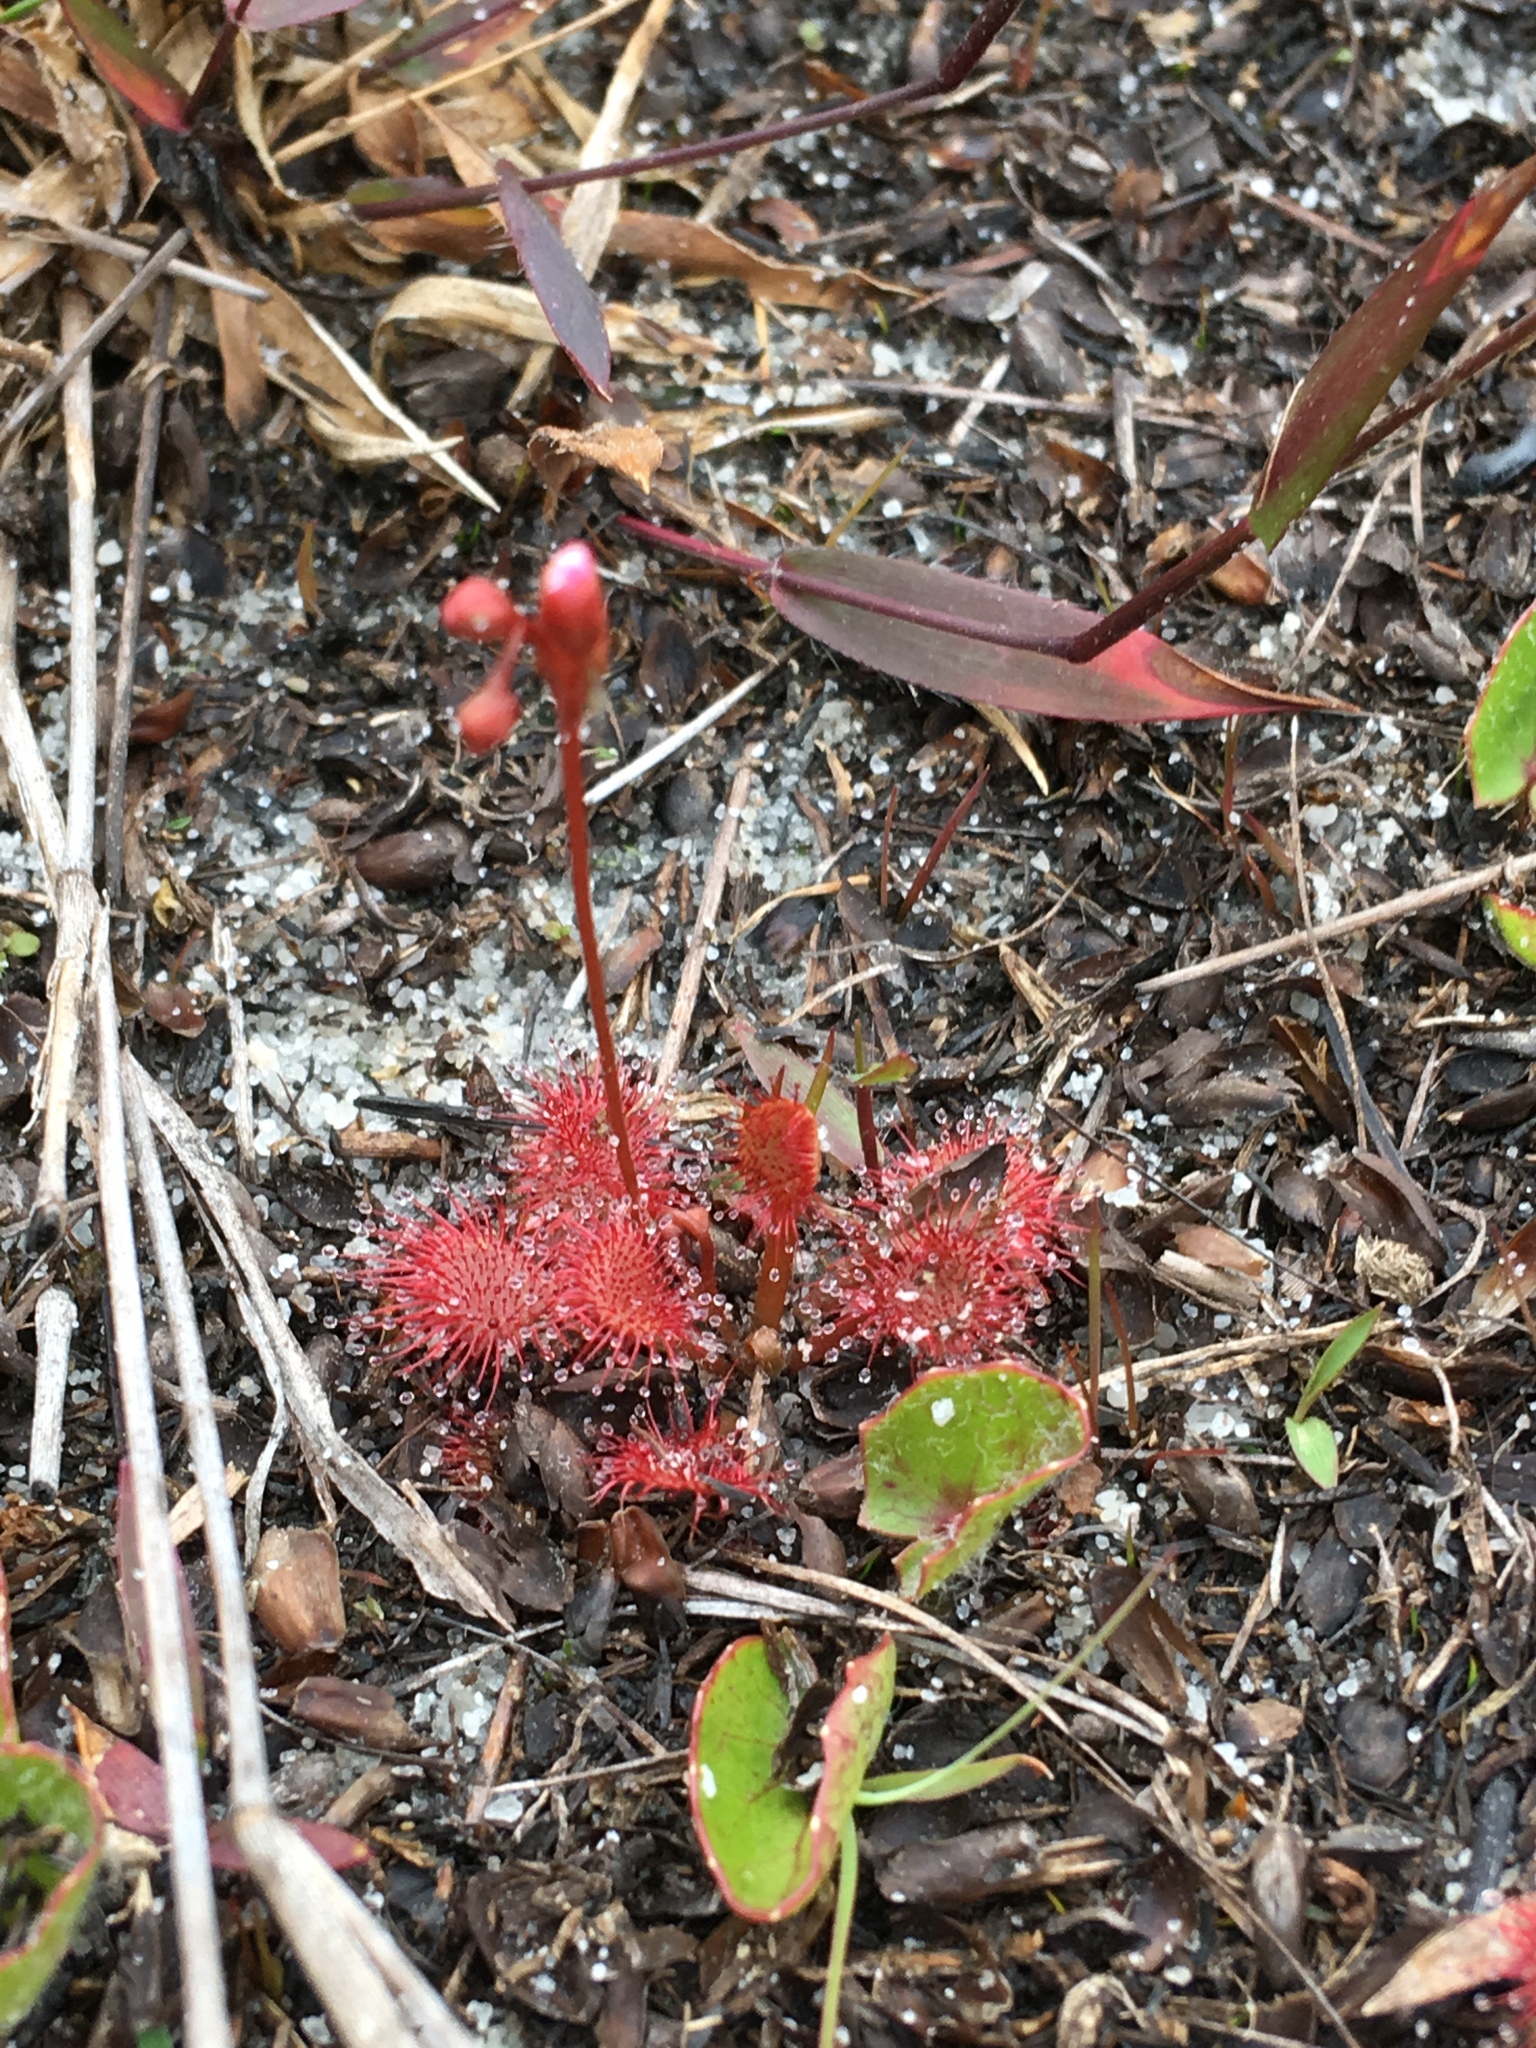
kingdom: Plantae
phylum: Tracheophyta
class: Magnoliopsida
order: Caryophyllales
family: Droseraceae
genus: Drosera
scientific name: Drosera capillaris
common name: Pink sundew
